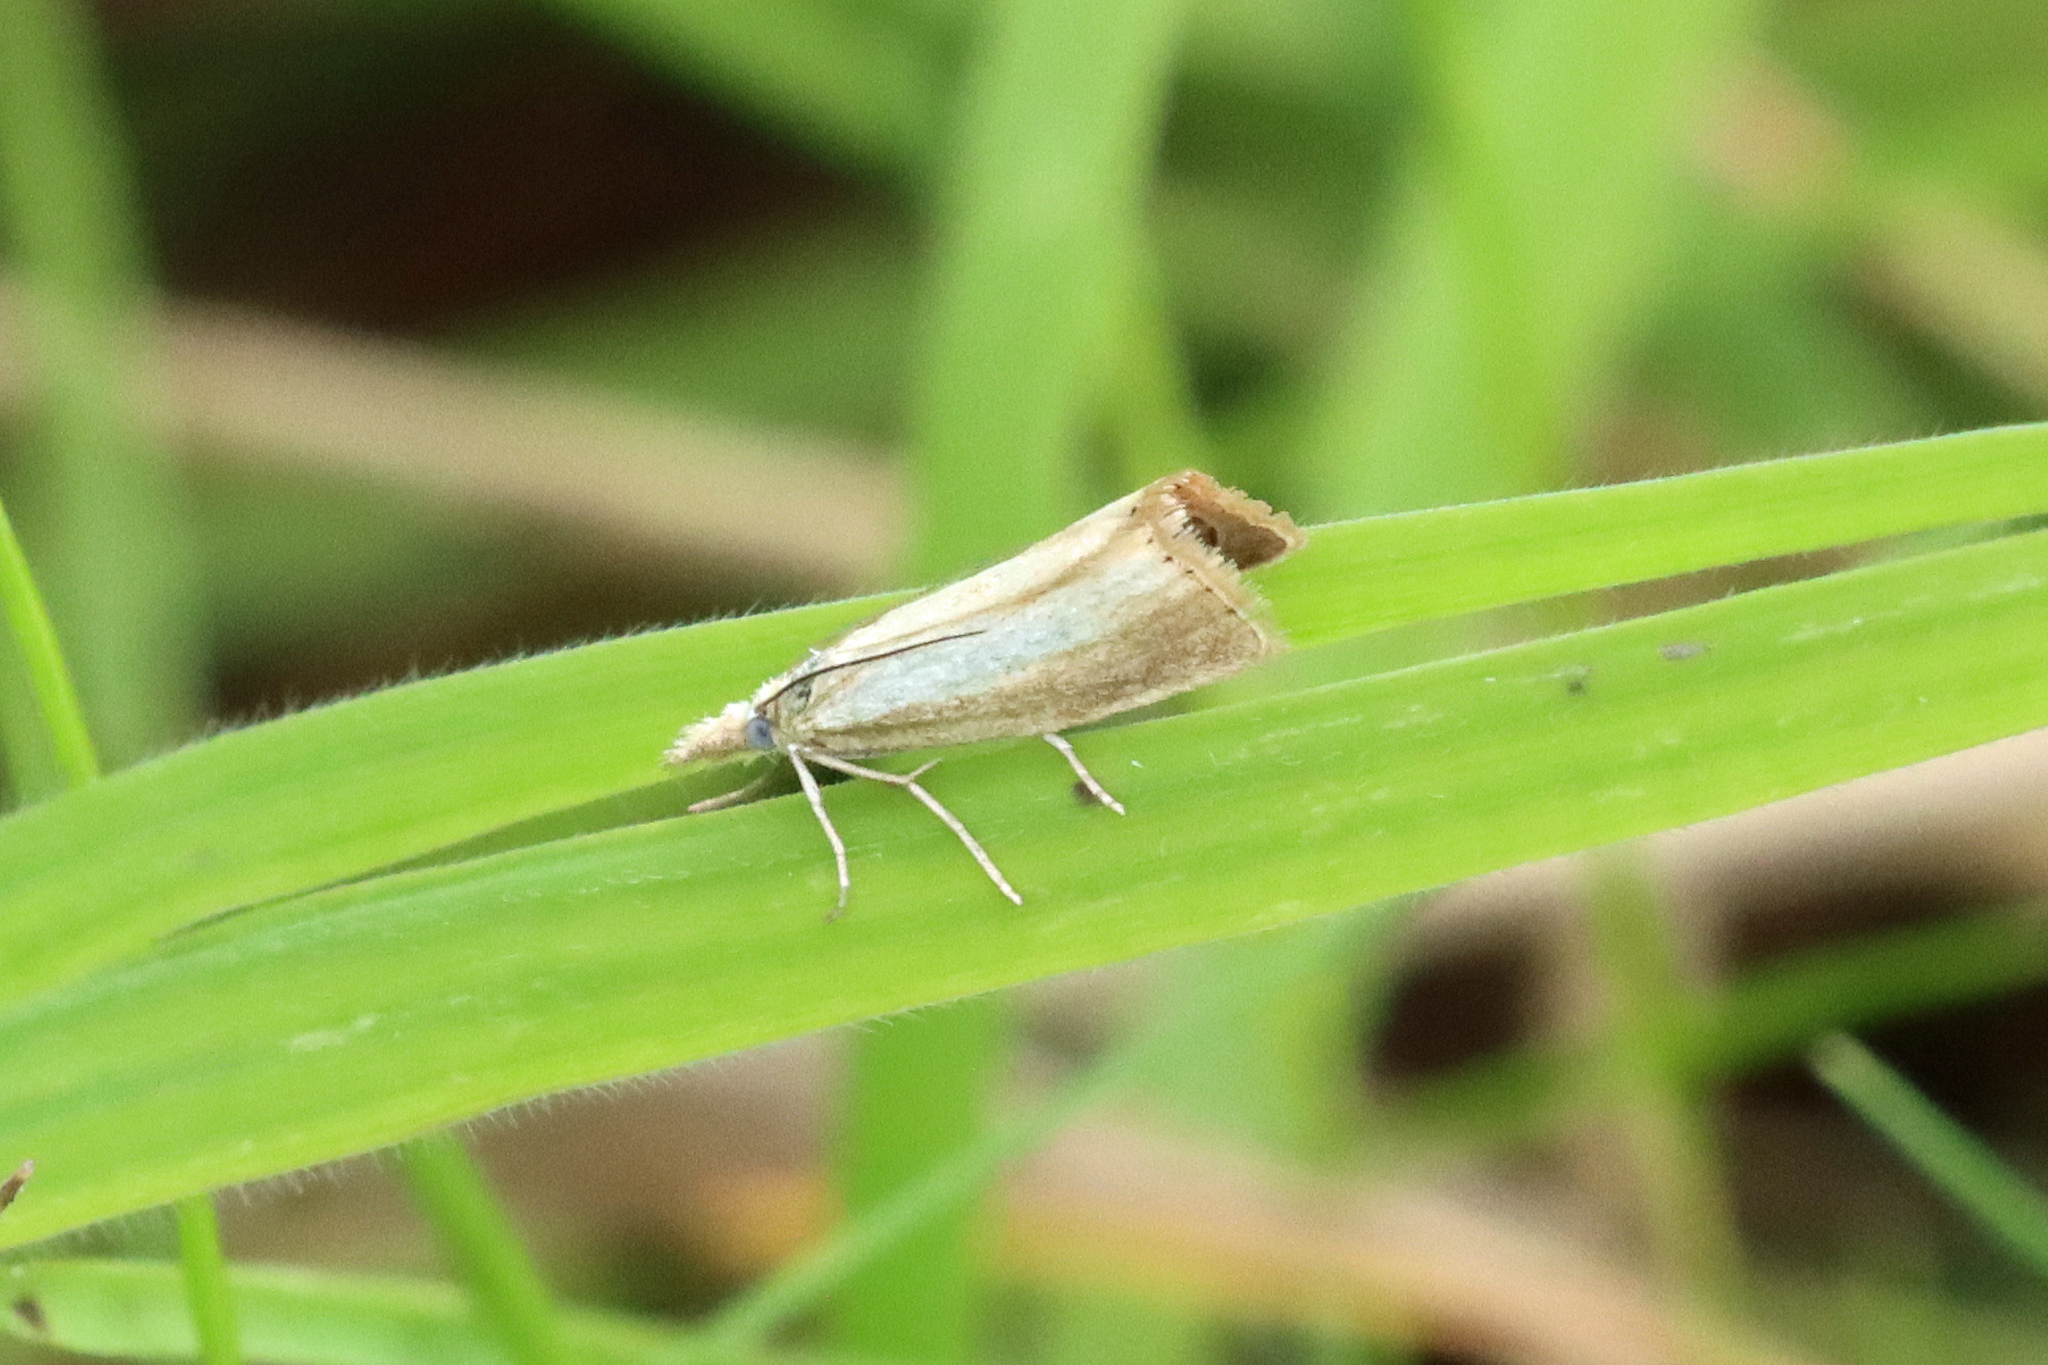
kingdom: Animalia
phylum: Arthropoda
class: Insecta
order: Lepidoptera
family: Crambidae
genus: Agriphila
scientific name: Agriphila straminella
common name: Straw grass-veneer
